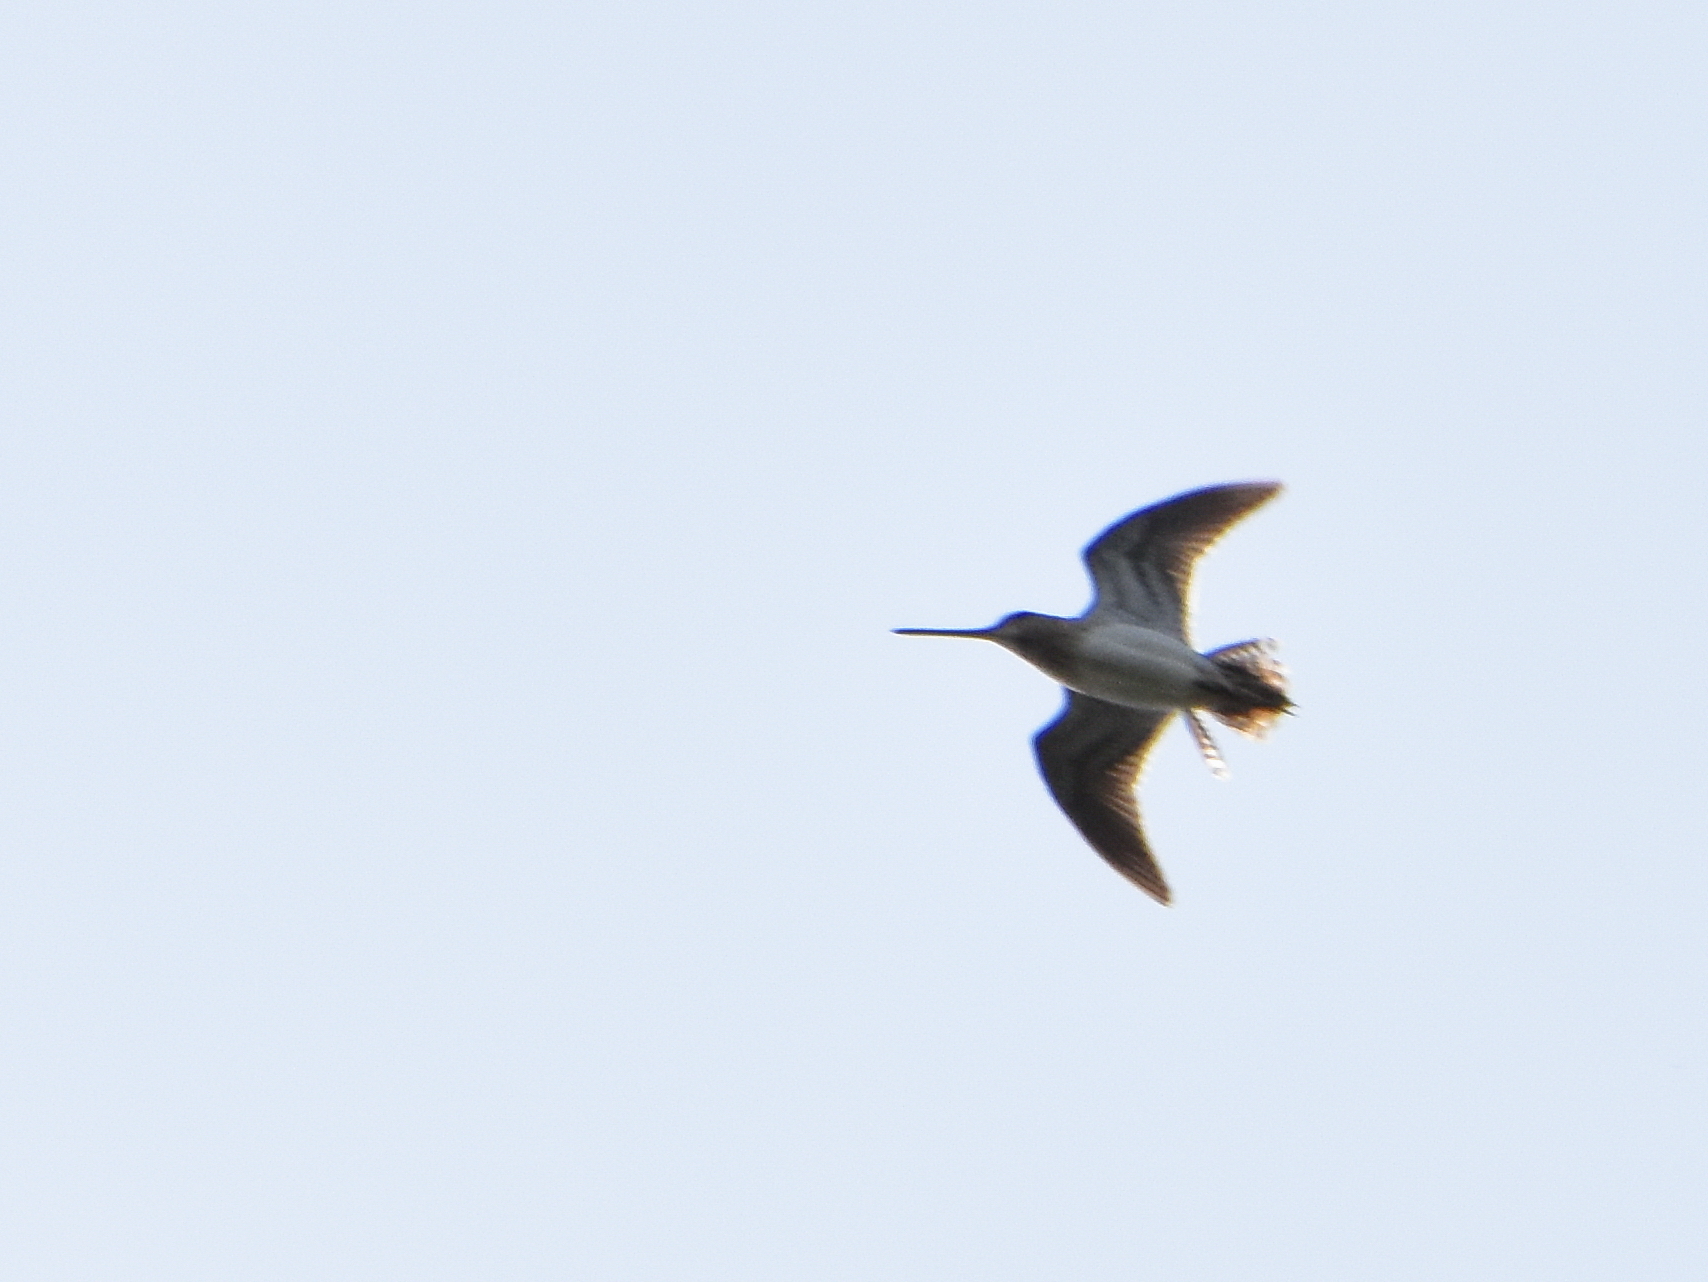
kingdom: Animalia
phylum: Chordata
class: Aves
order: Charadriiformes
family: Scolopacidae
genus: Gallinago
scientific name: Gallinago gallinago
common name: Common snipe
